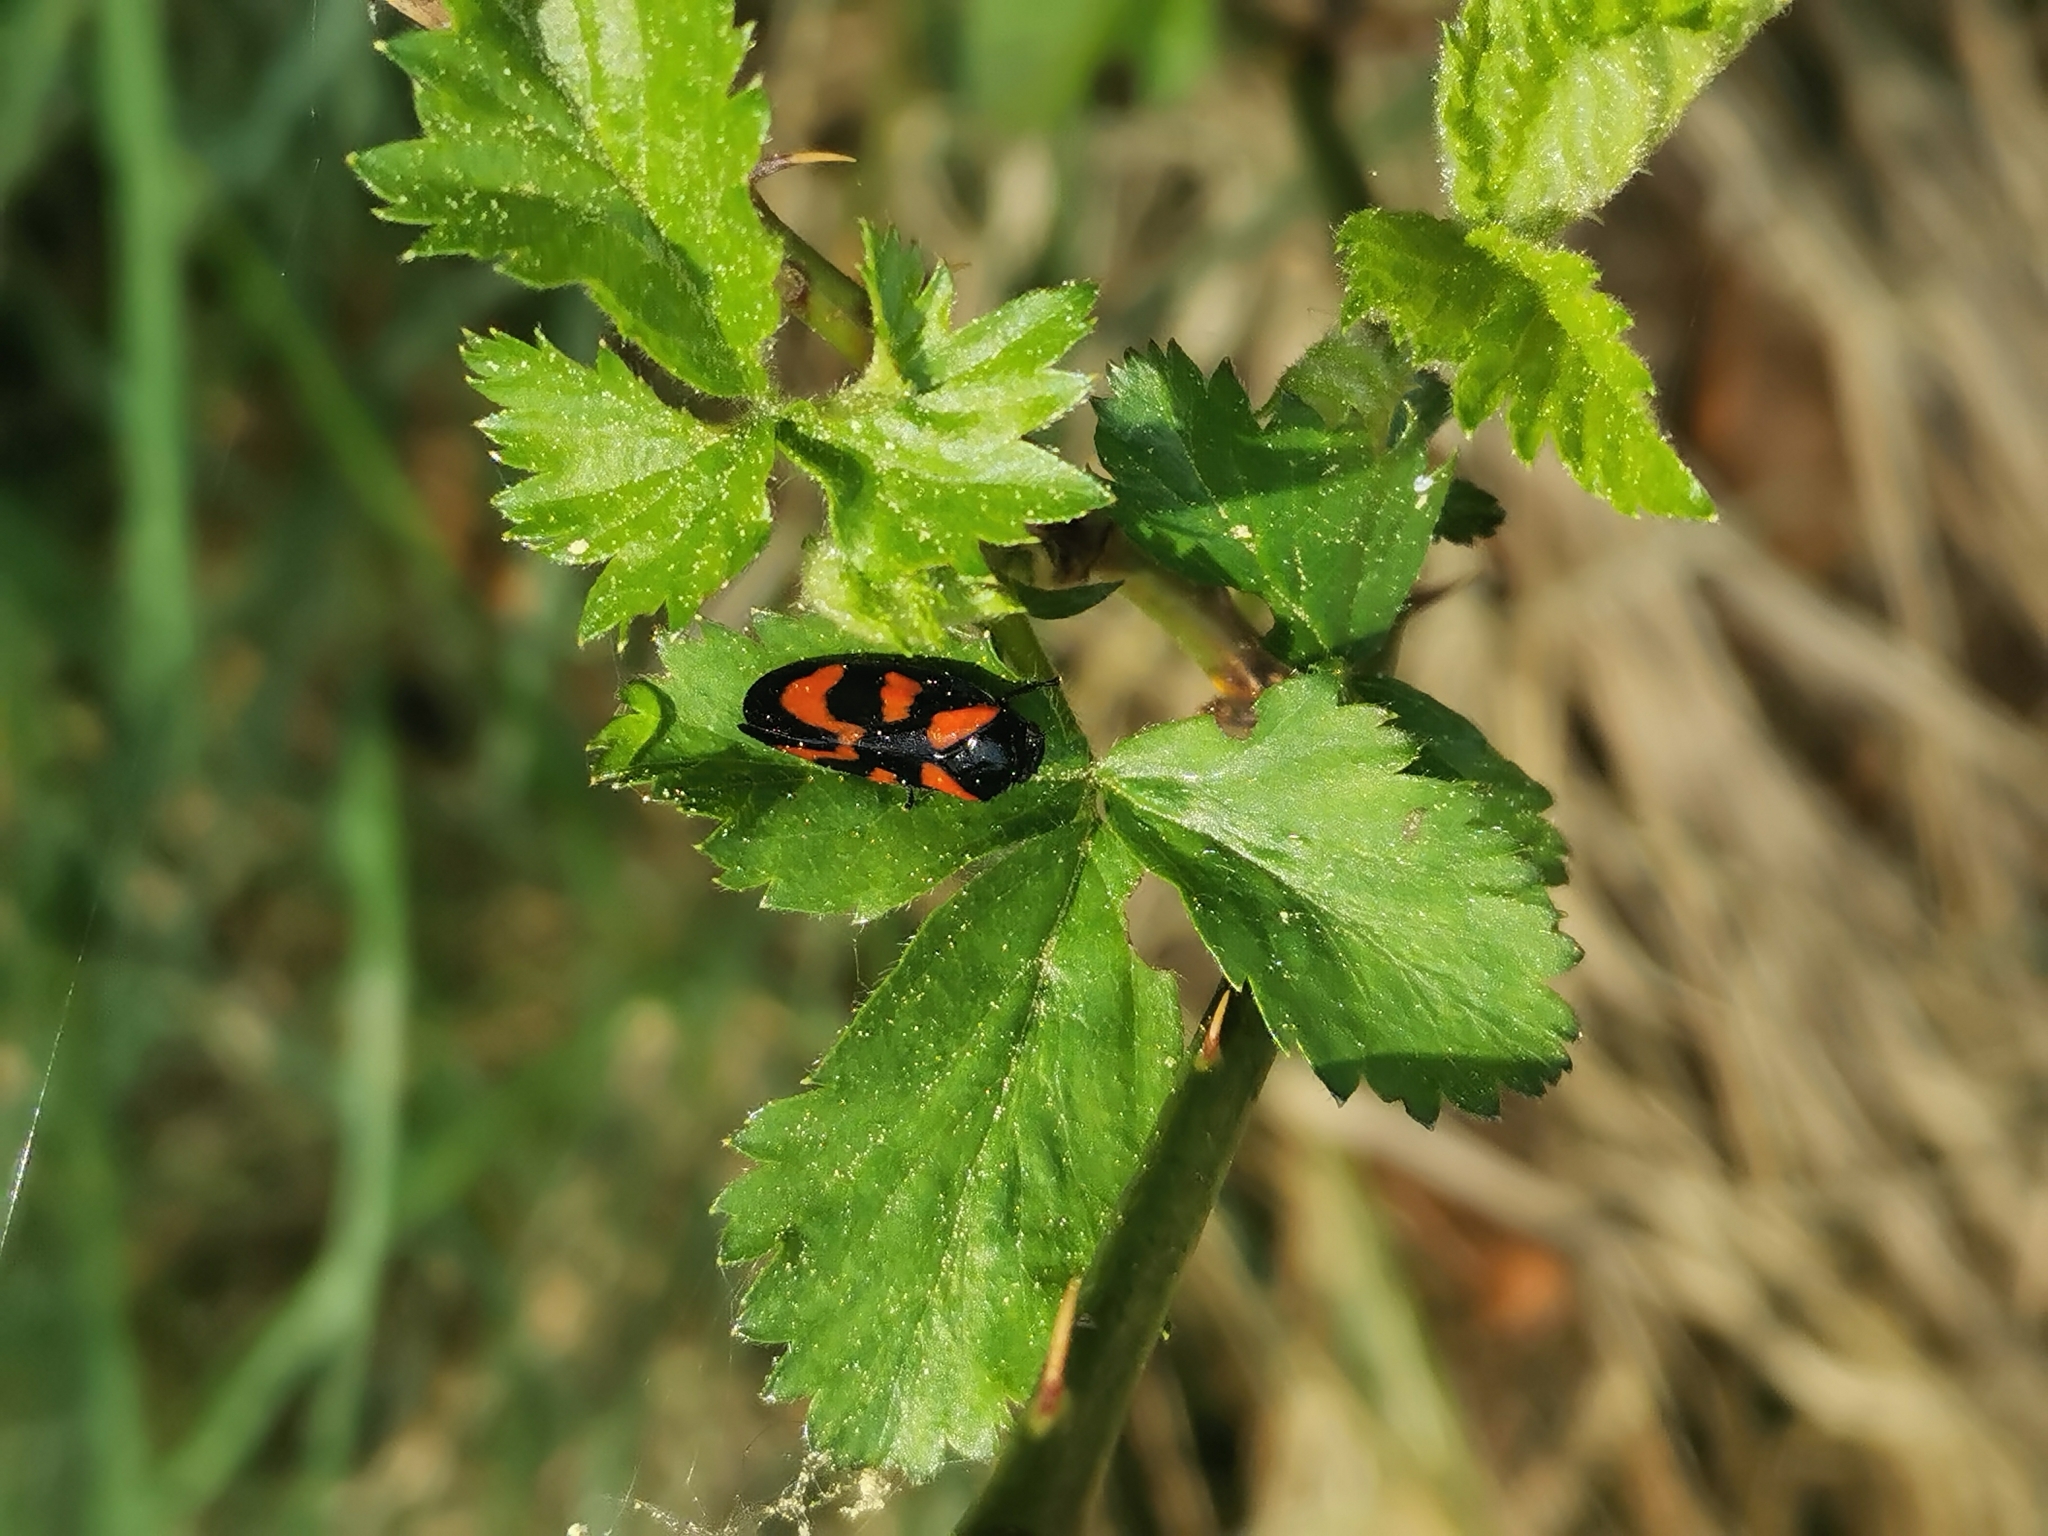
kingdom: Animalia
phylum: Arthropoda
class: Insecta
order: Hemiptera
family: Cercopidae
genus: Cercopis
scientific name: Cercopis vulnerata
